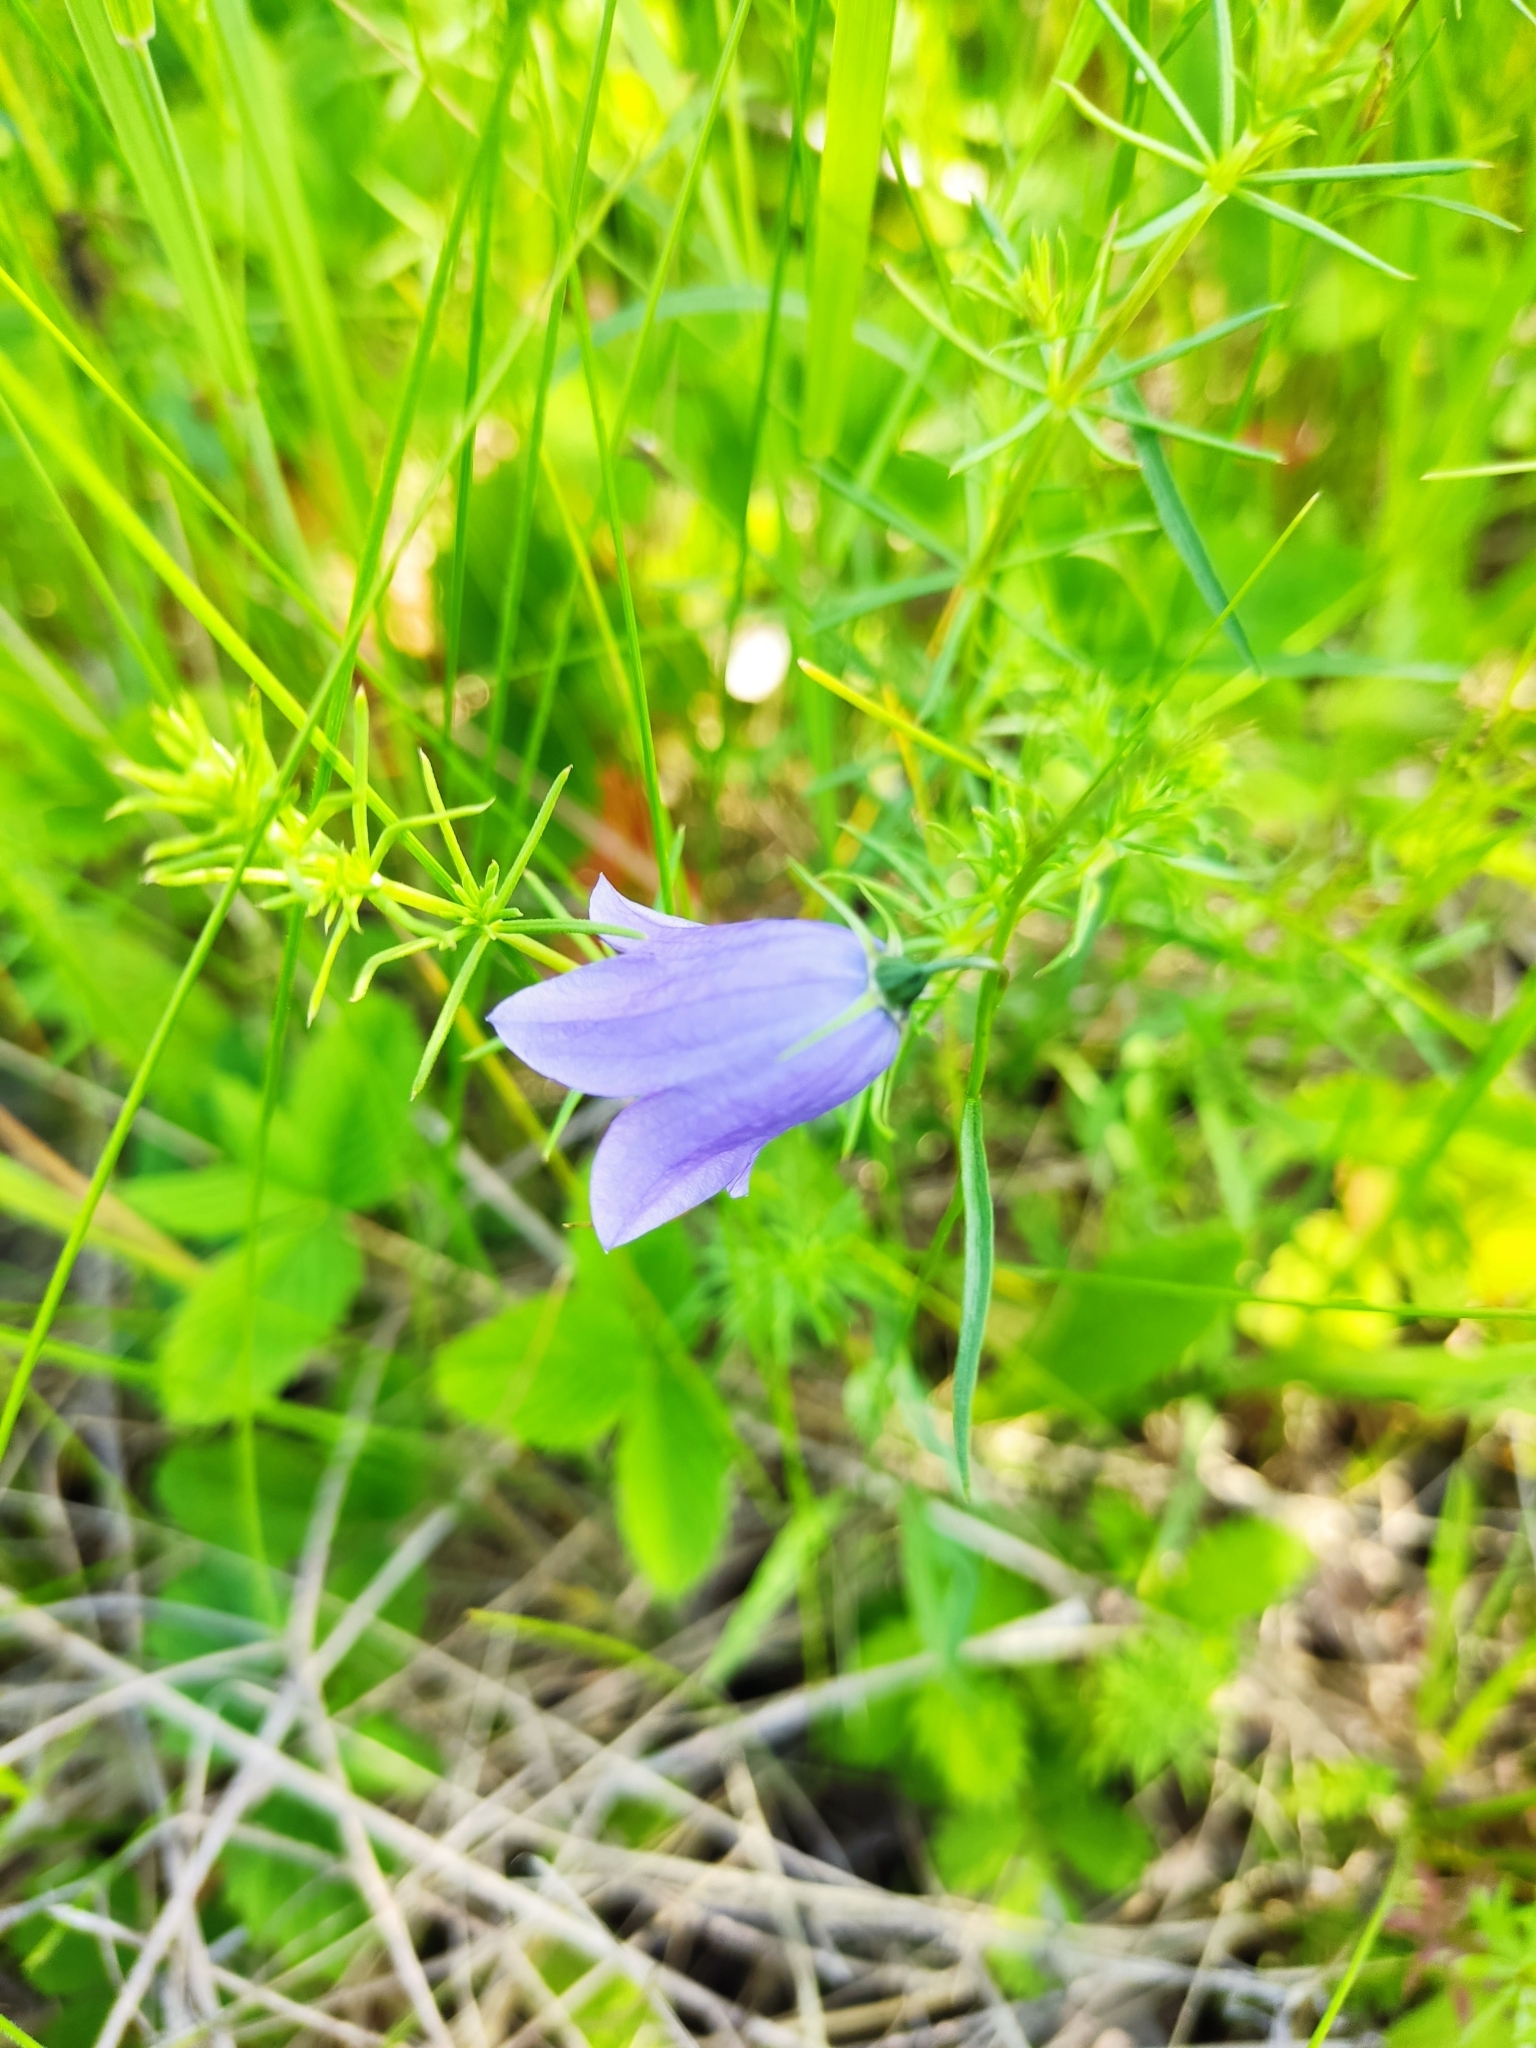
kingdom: Plantae
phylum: Tracheophyta
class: Magnoliopsida
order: Asterales
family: Campanulaceae
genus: Campanula
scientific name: Campanula rotundifolia
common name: Harebell
